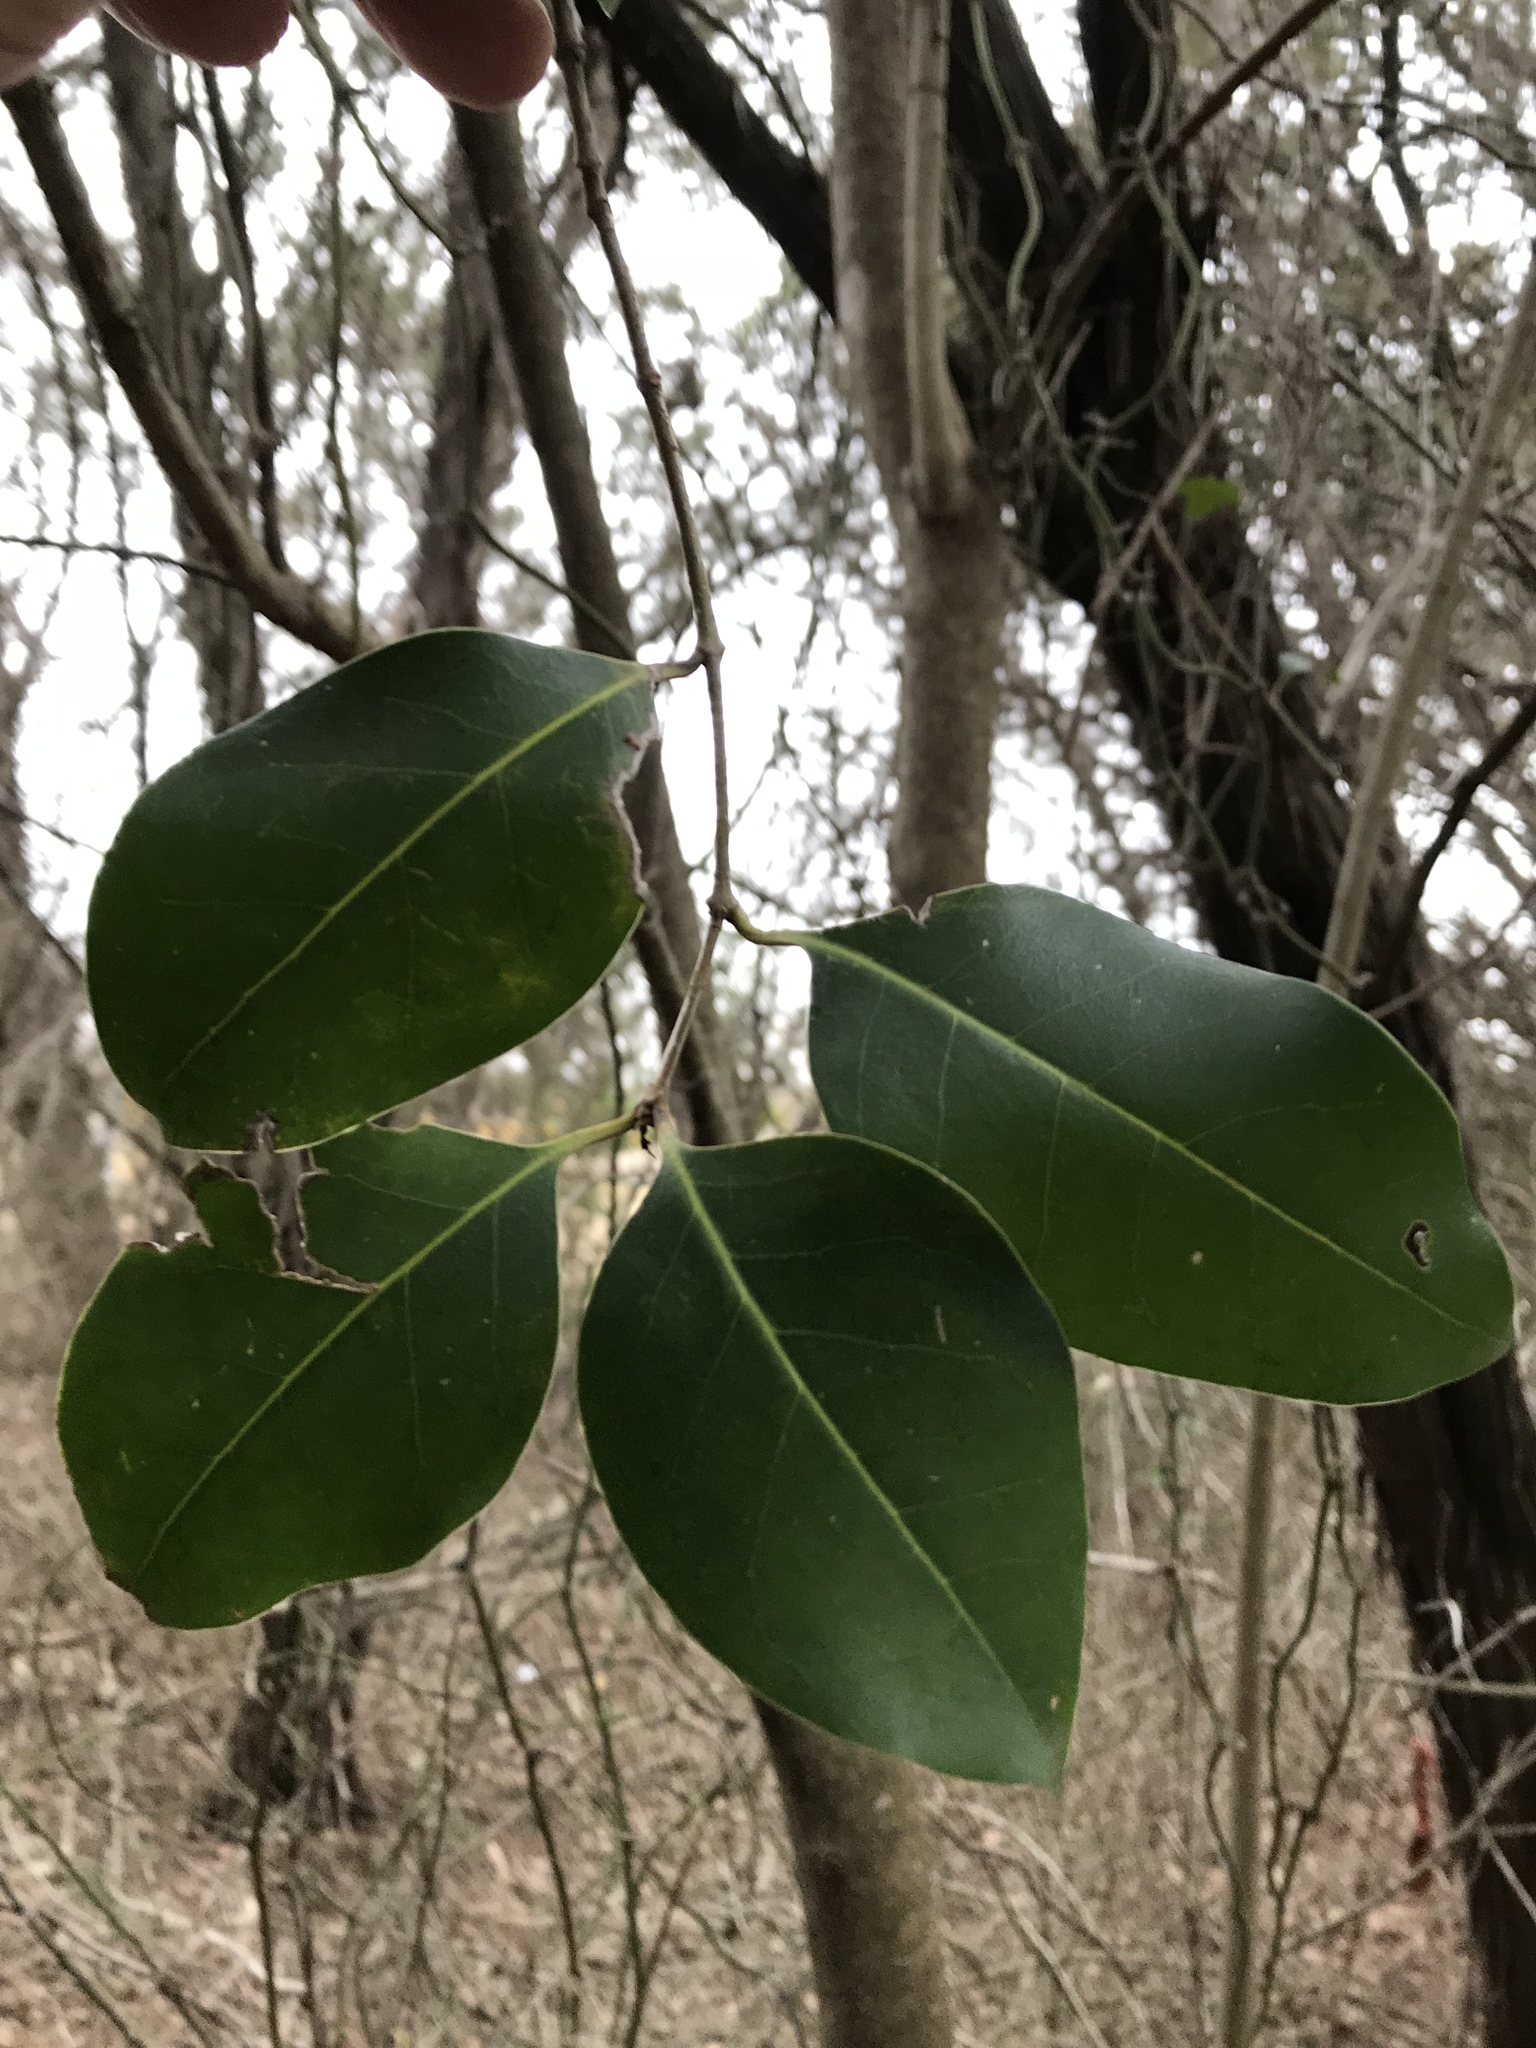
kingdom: Plantae
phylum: Tracheophyta
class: Magnoliopsida
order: Lamiales
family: Oleaceae
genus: Ligustrum
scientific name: Ligustrum lucidum
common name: Glossy privet
